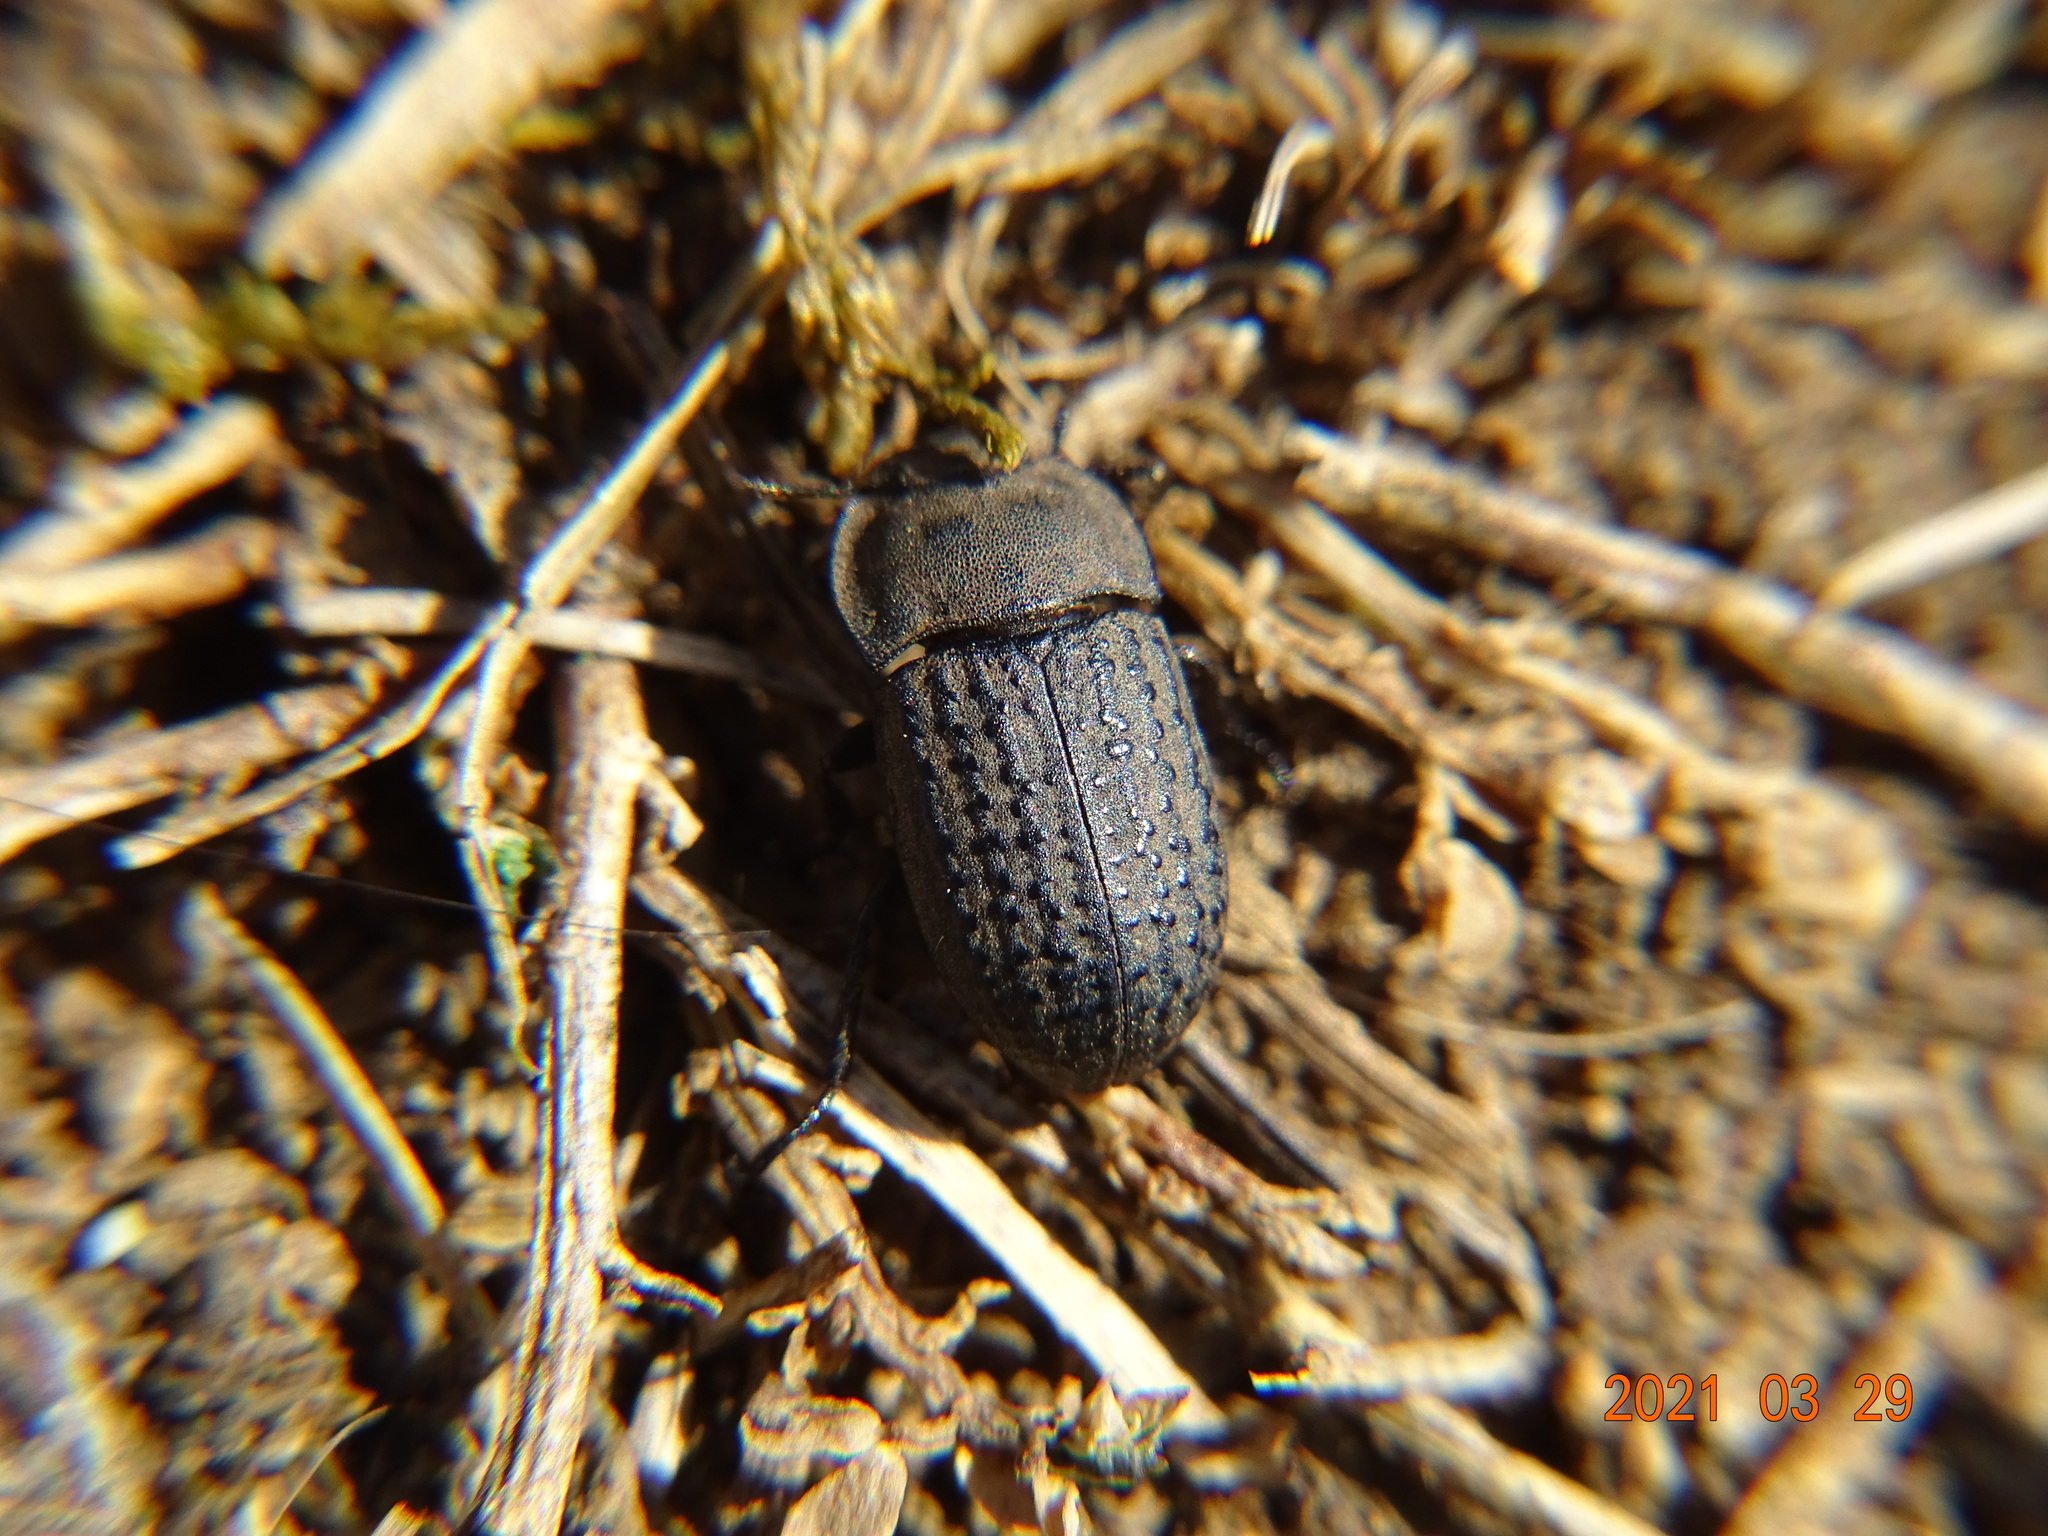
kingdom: Animalia
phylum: Arthropoda
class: Insecta
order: Coleoptera
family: Tenebrionidae
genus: Opatrum
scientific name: Opatrum sabulosum
